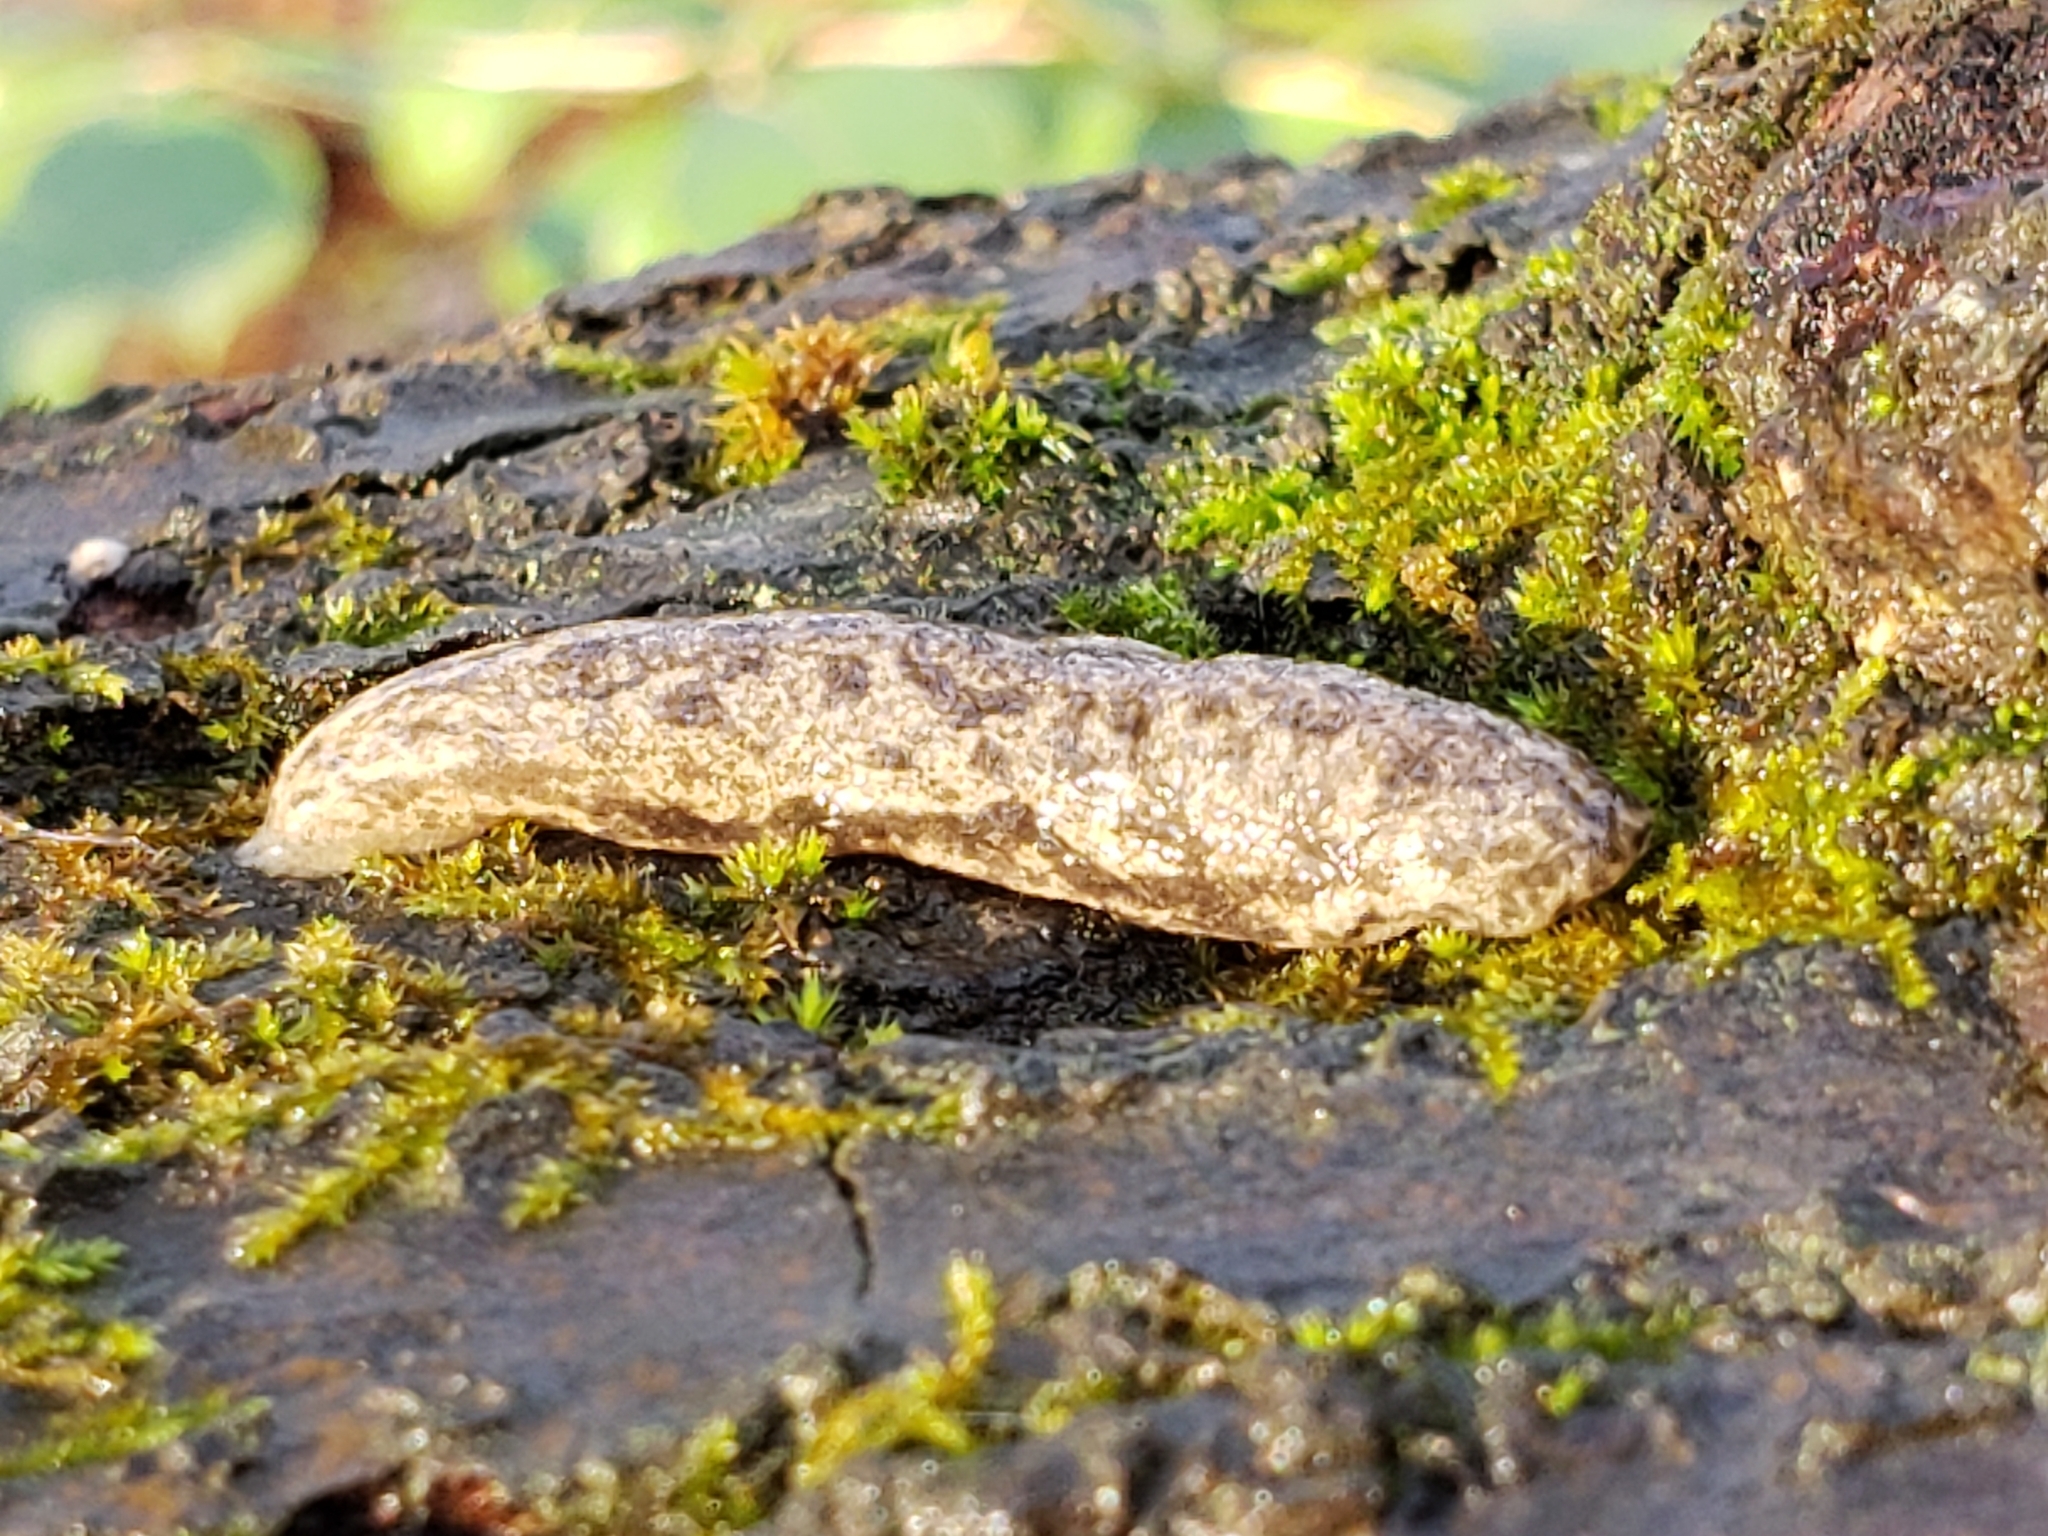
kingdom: Animalia
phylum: Mollusca
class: Gastropoda
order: Stylommatophora
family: Philomycidae
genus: Megapallifera
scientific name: Megapallifera mutabilis
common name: Changeable mantleslug
